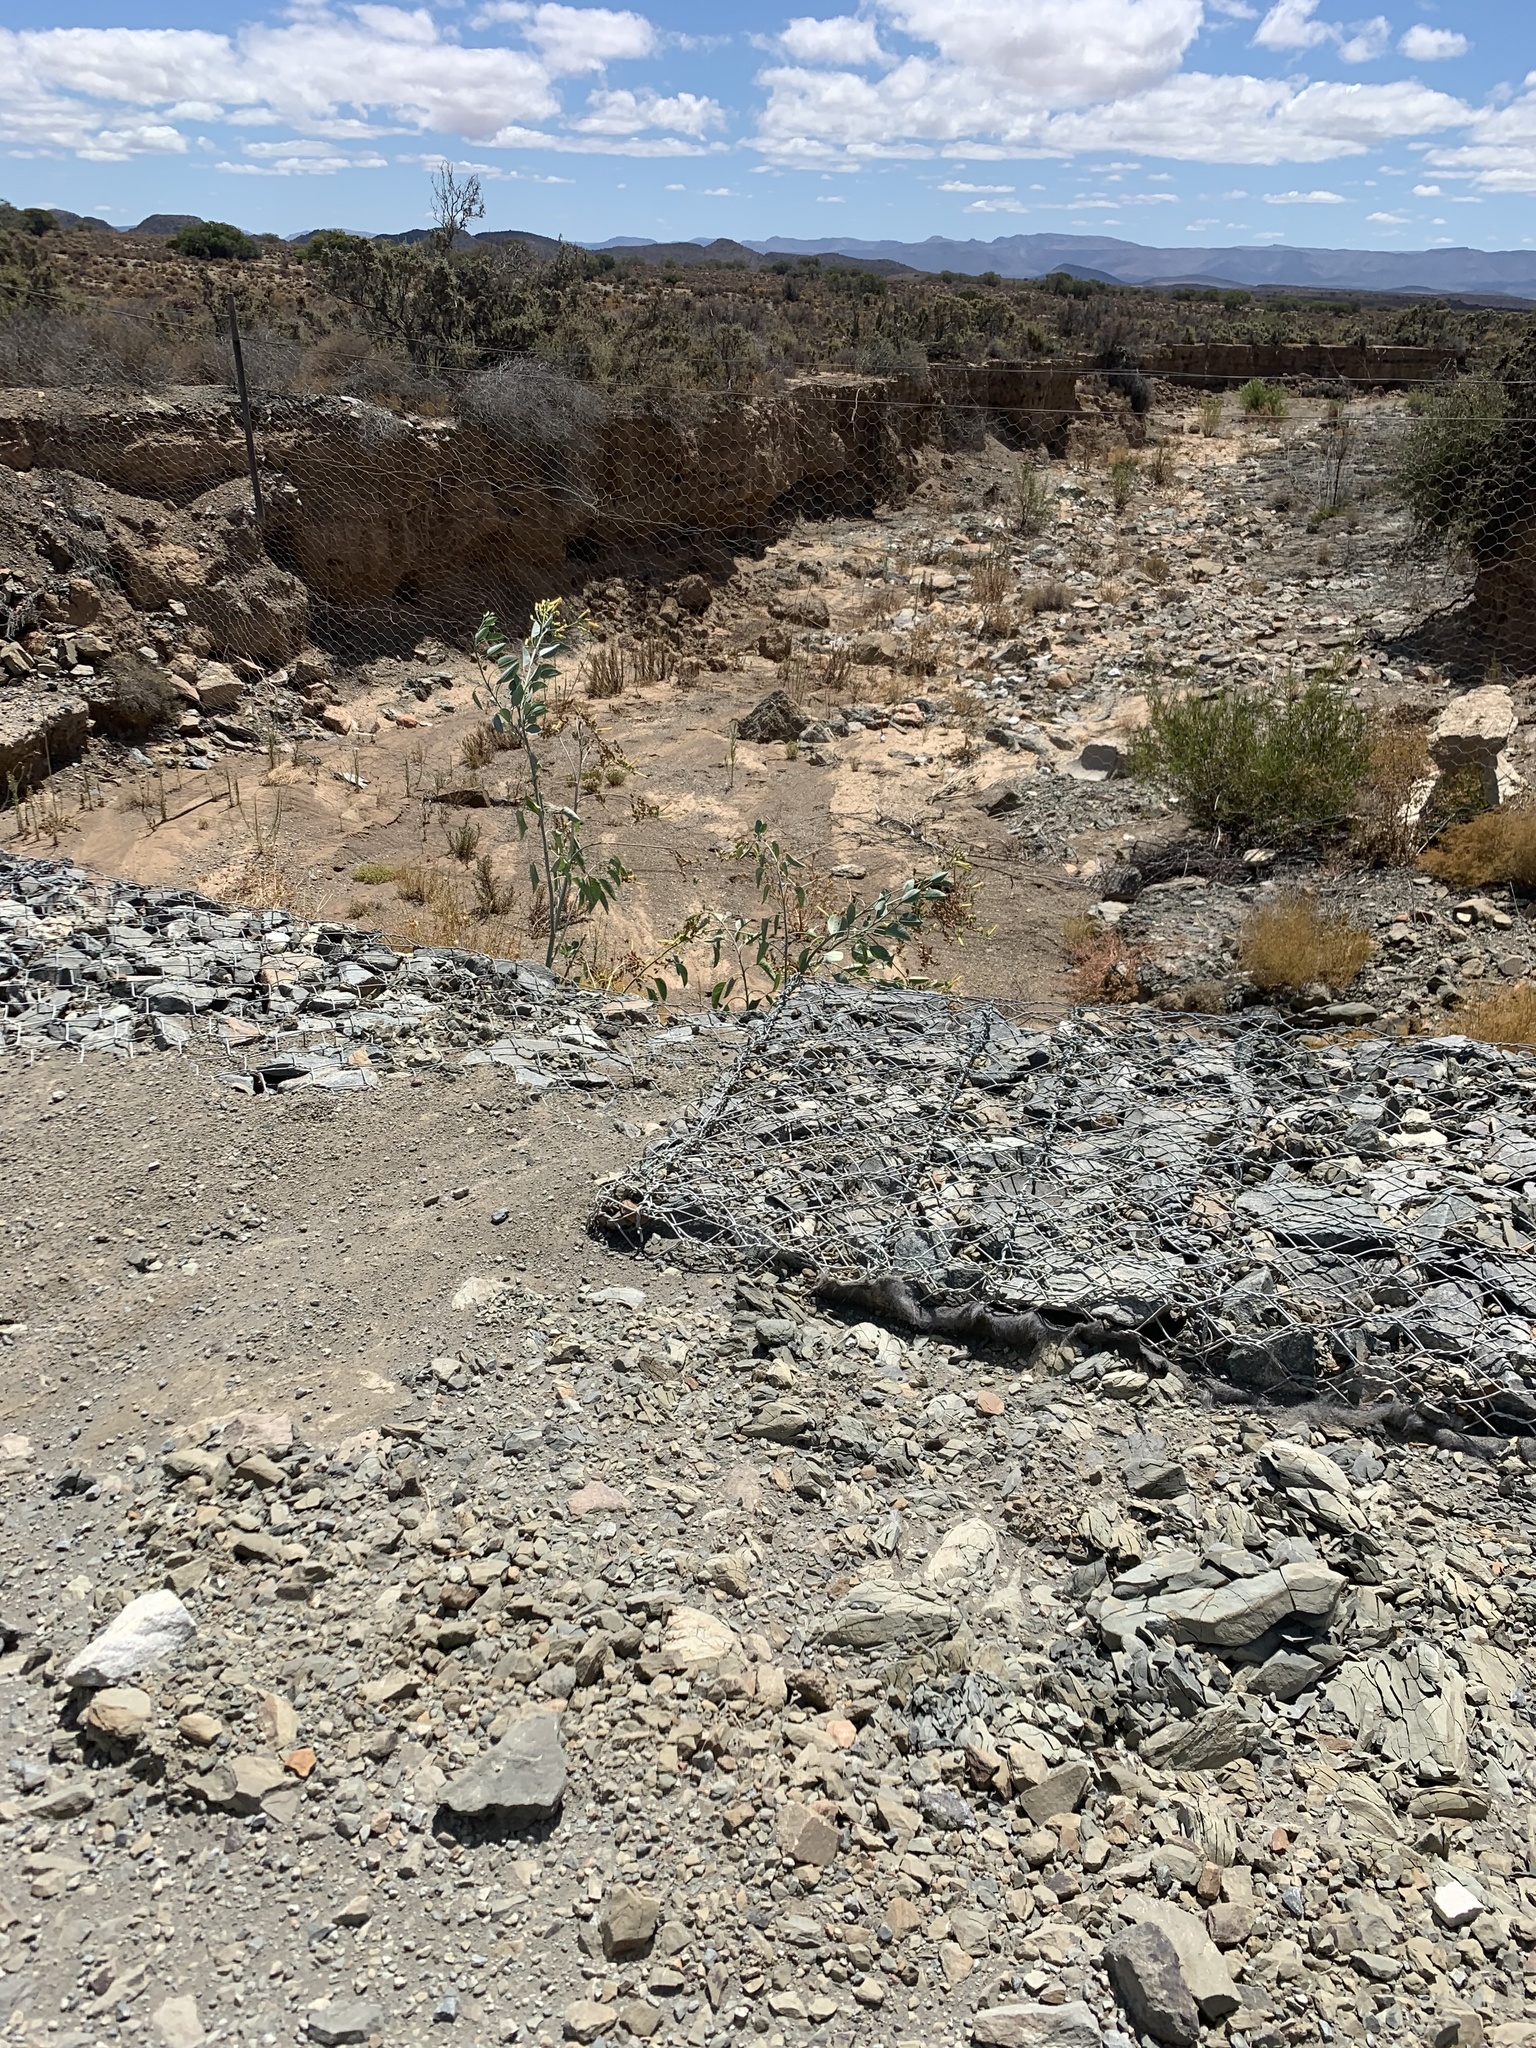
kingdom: Plantae
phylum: Tracheophyta
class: Magnoliopsida
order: Solanales
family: Solanaceae
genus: Nicotiana
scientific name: Nicotiana glauca
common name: Tree tobacco
